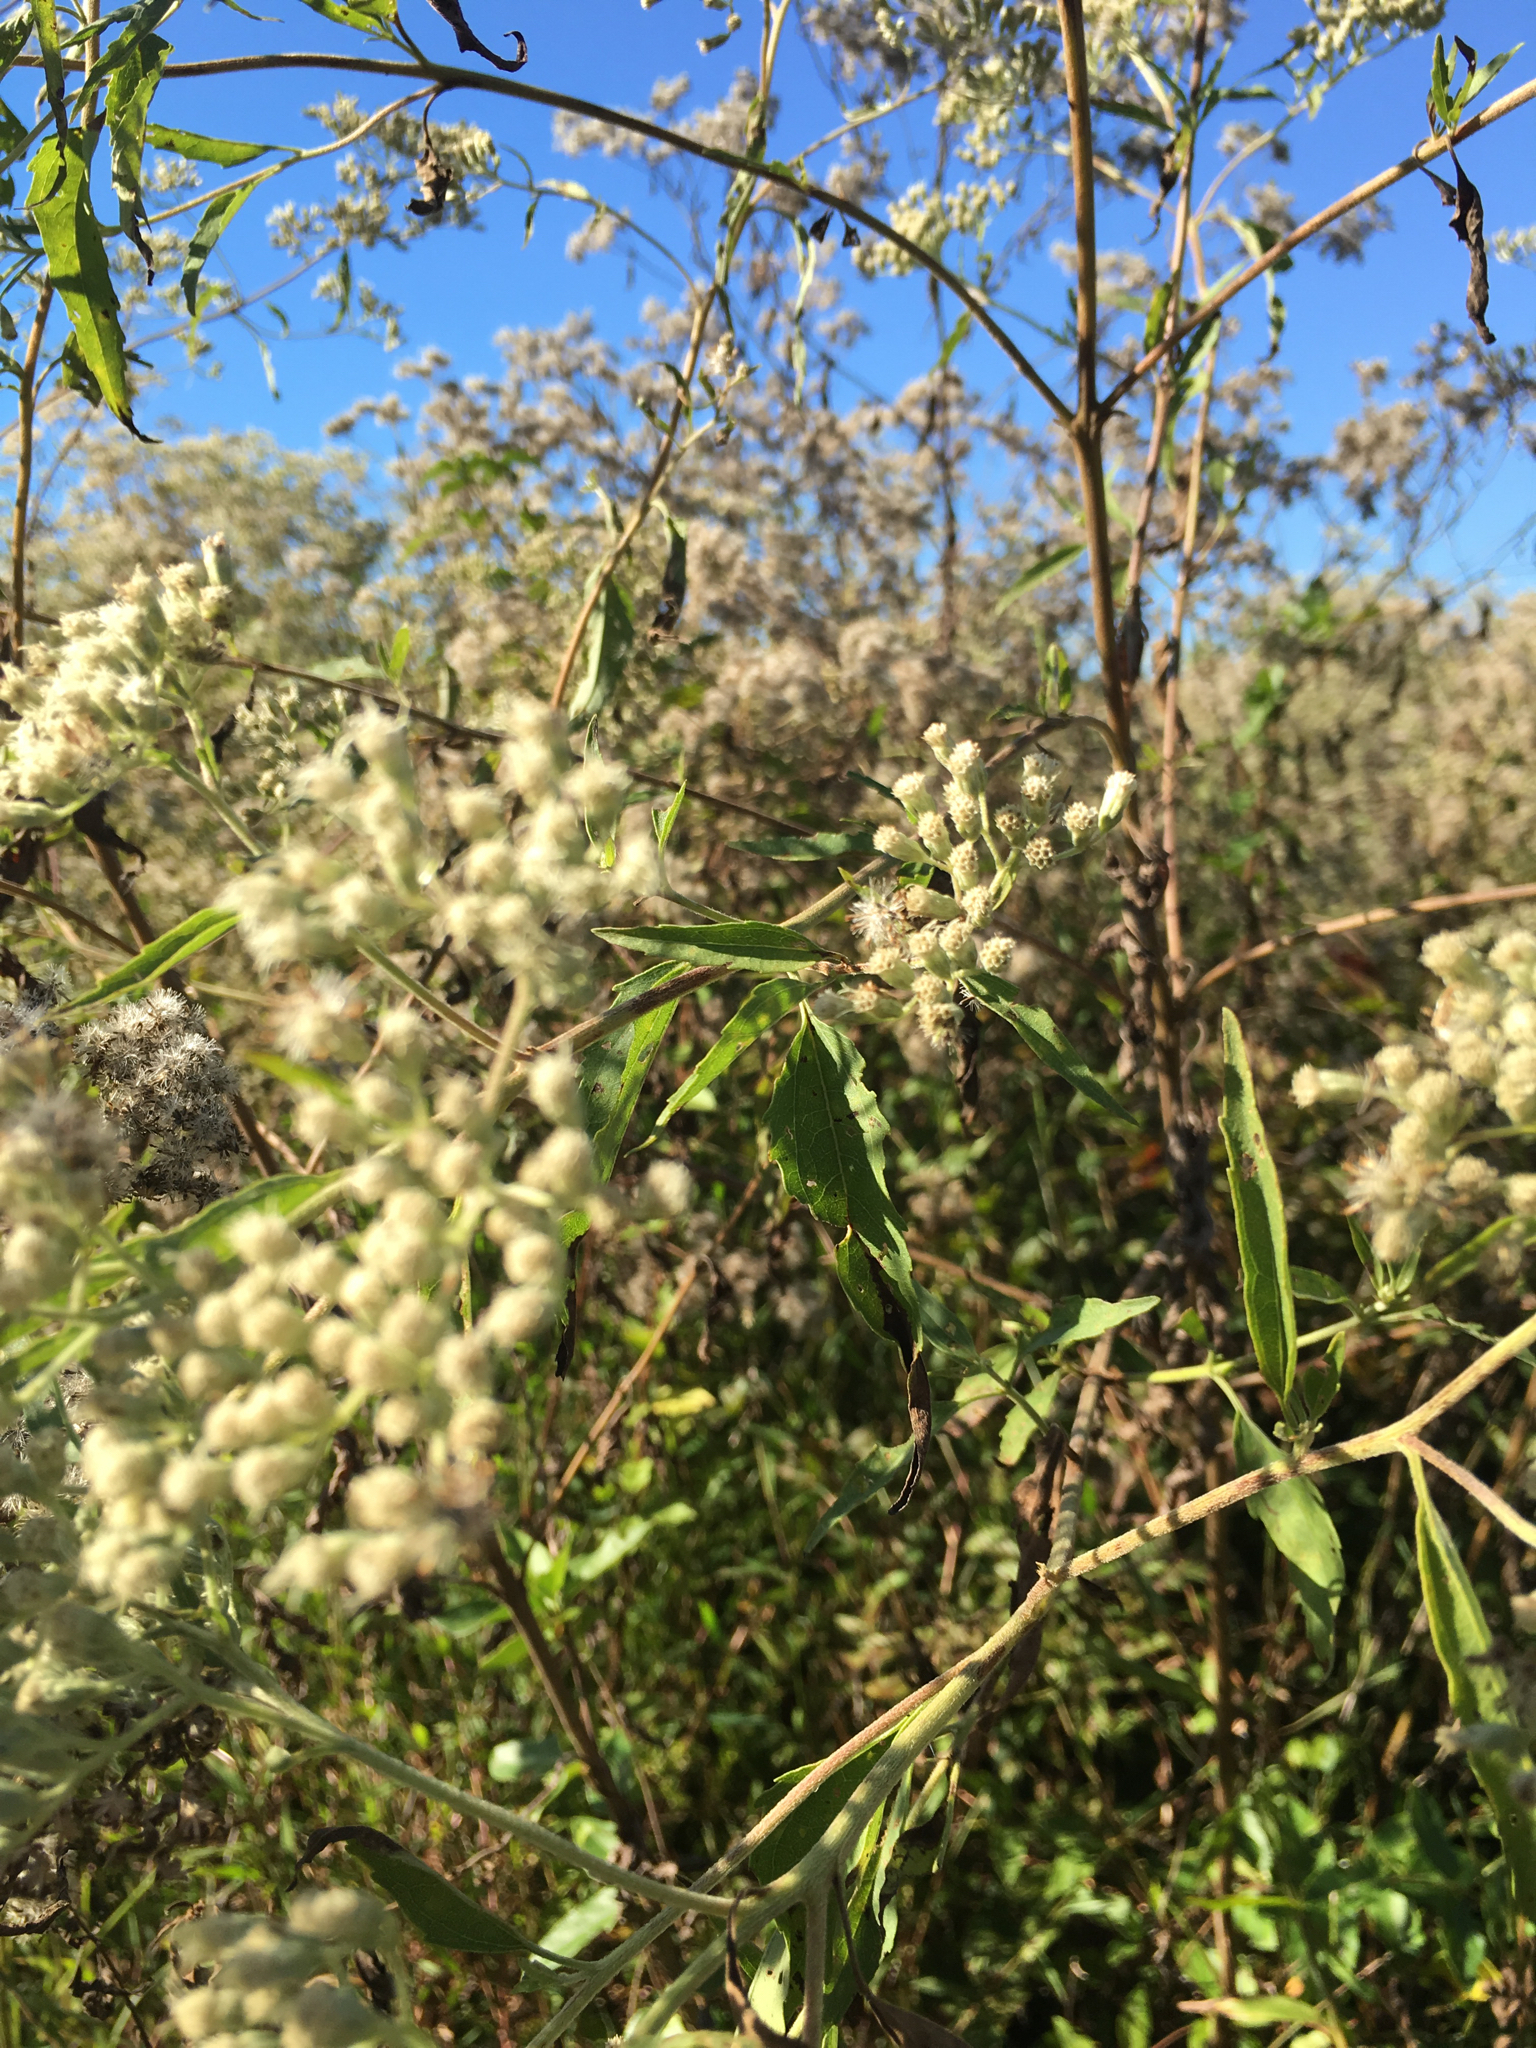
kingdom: Plantae
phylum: Tracheophyta
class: Magnoliopsida
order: Asterales
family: Asteraceae
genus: Eupatorium
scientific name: Eupatorium serotinum
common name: Late boneset
